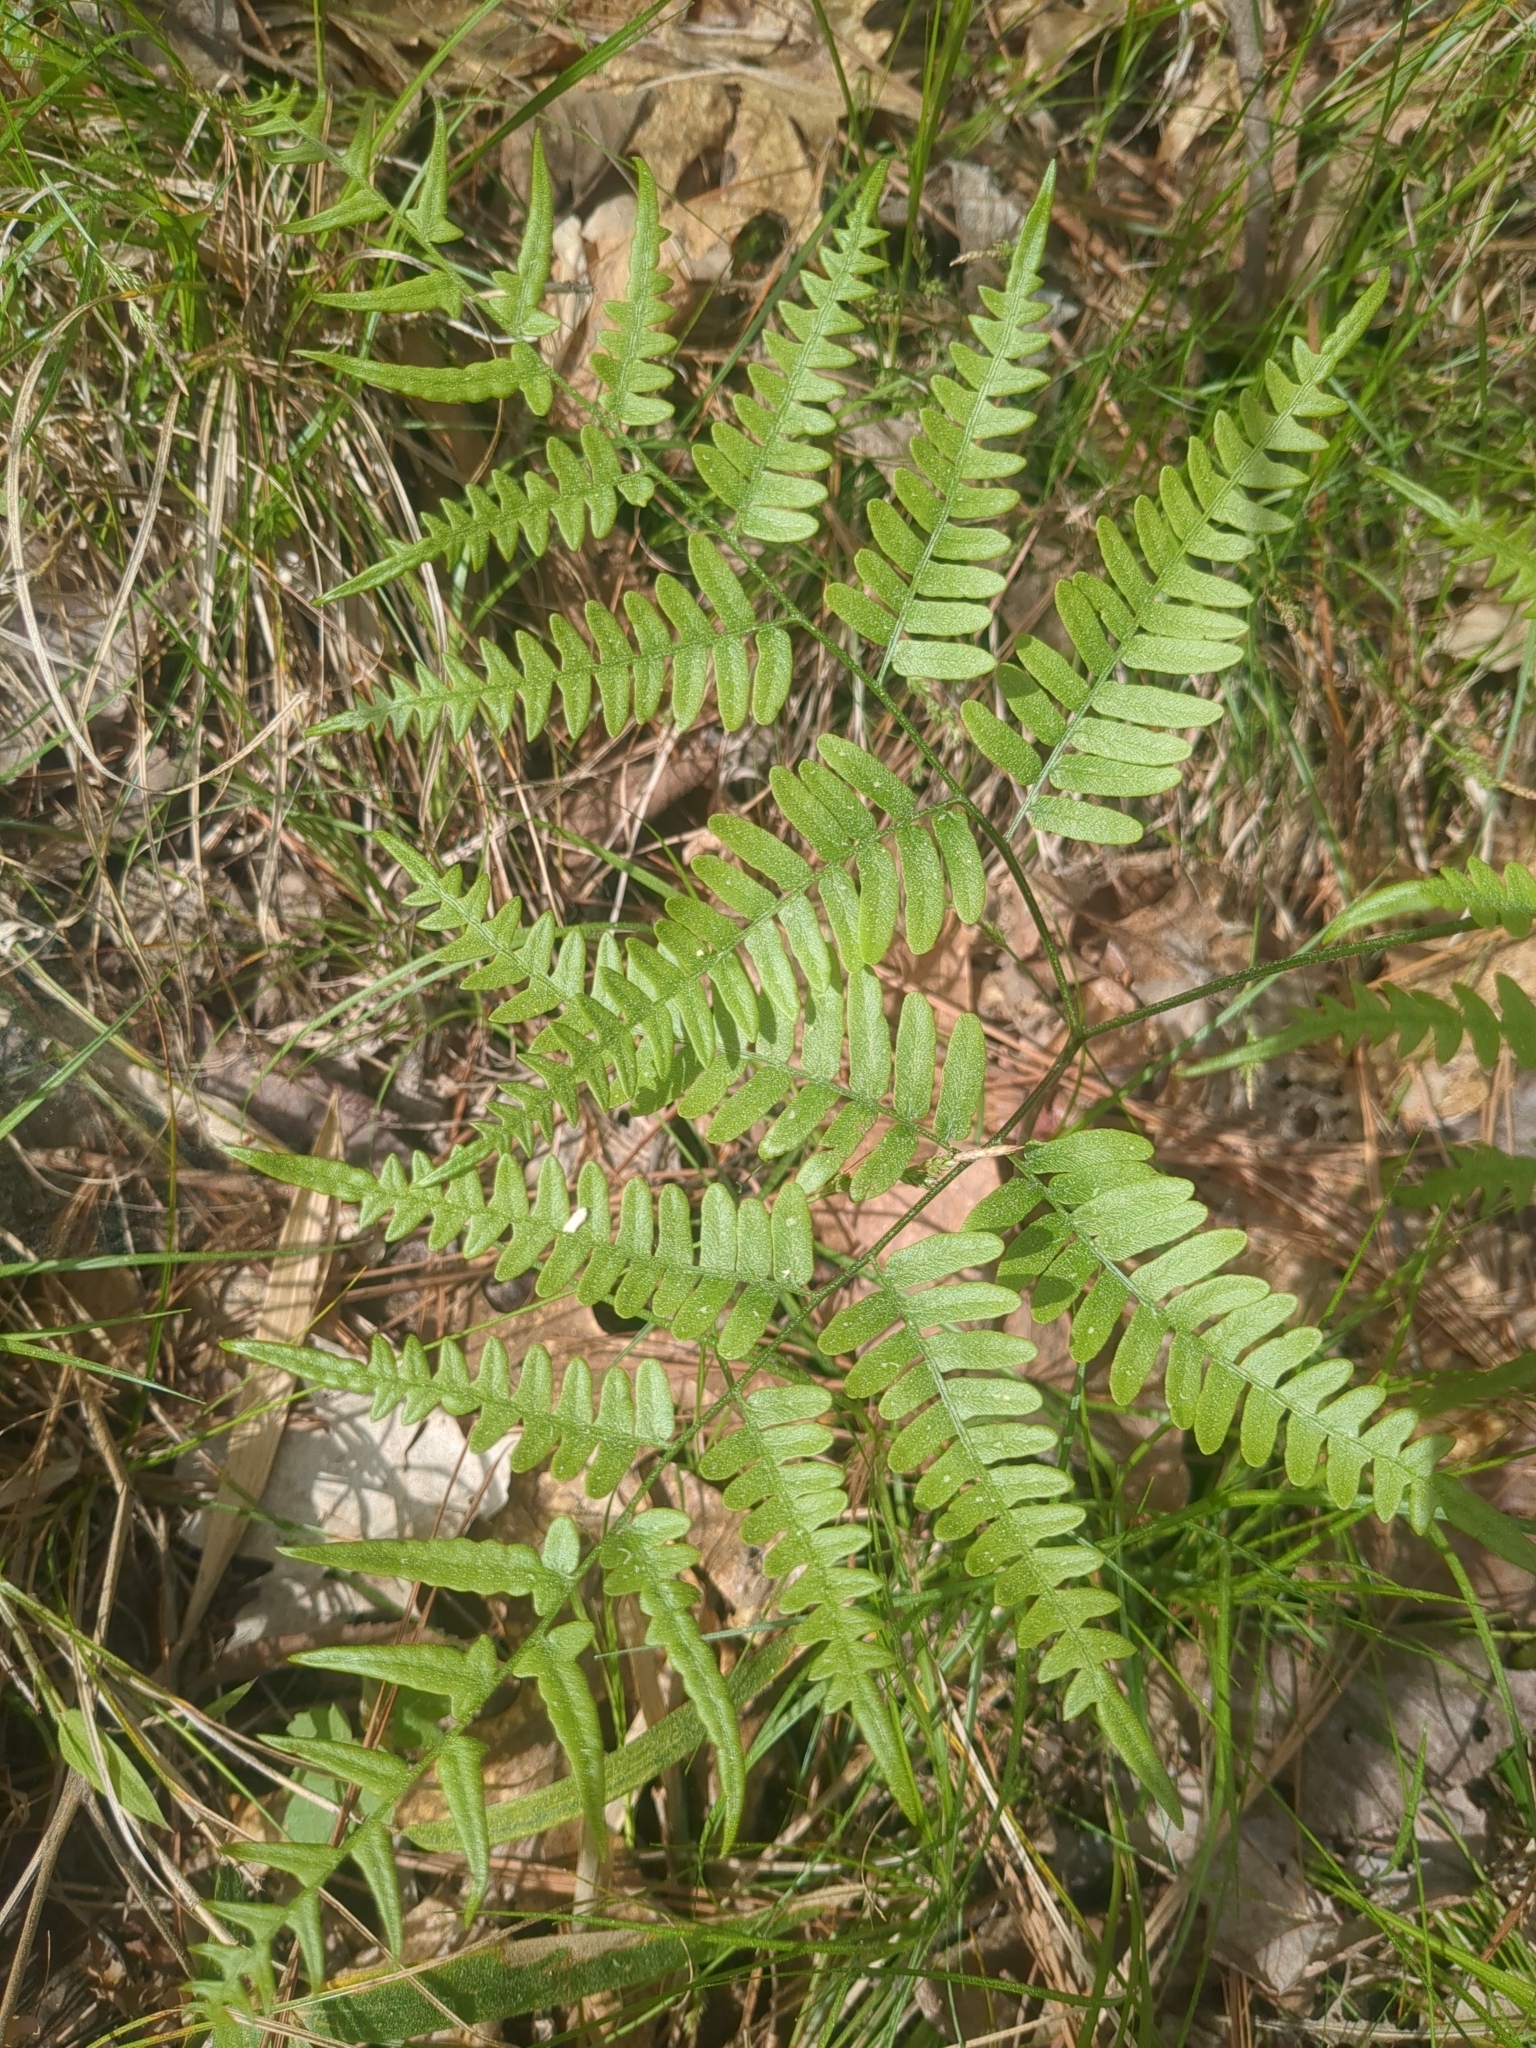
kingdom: Plantae
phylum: Tracheophyta
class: Polypodiopsida
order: Polypodiales
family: Dennstaedtiaceae
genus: Pteridium
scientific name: Pteridium aquilinum
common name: Bracken
